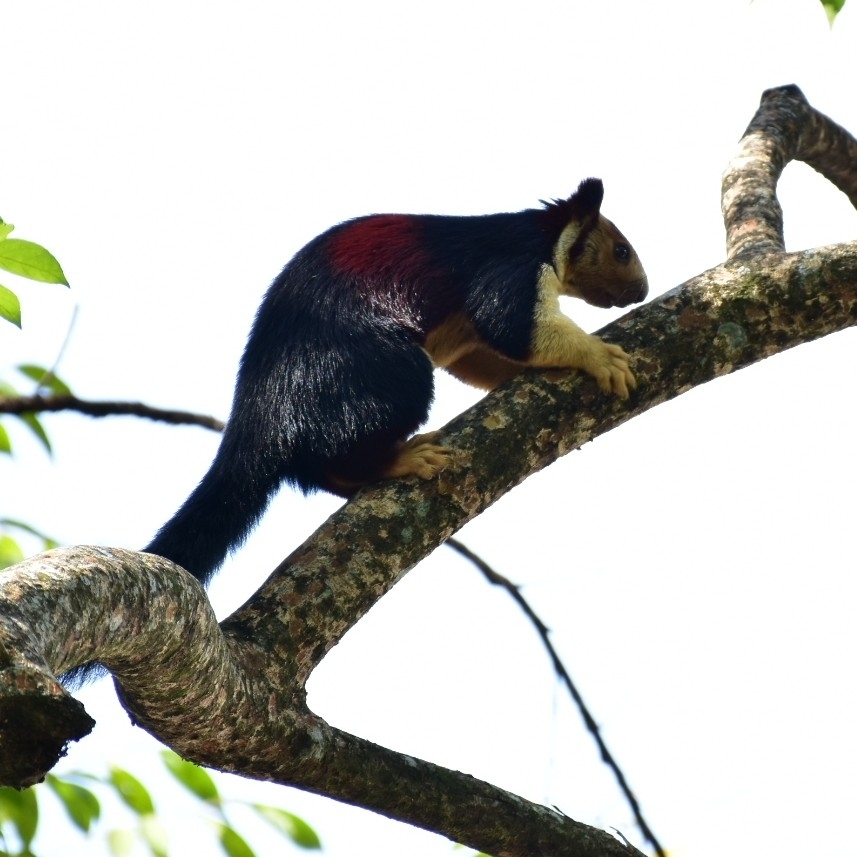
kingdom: Animalia
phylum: Chordata
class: Mammalia
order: Rodentia
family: Sciuridae
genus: Ratufa
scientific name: Ratufa indica
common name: Indian giant squirrel
